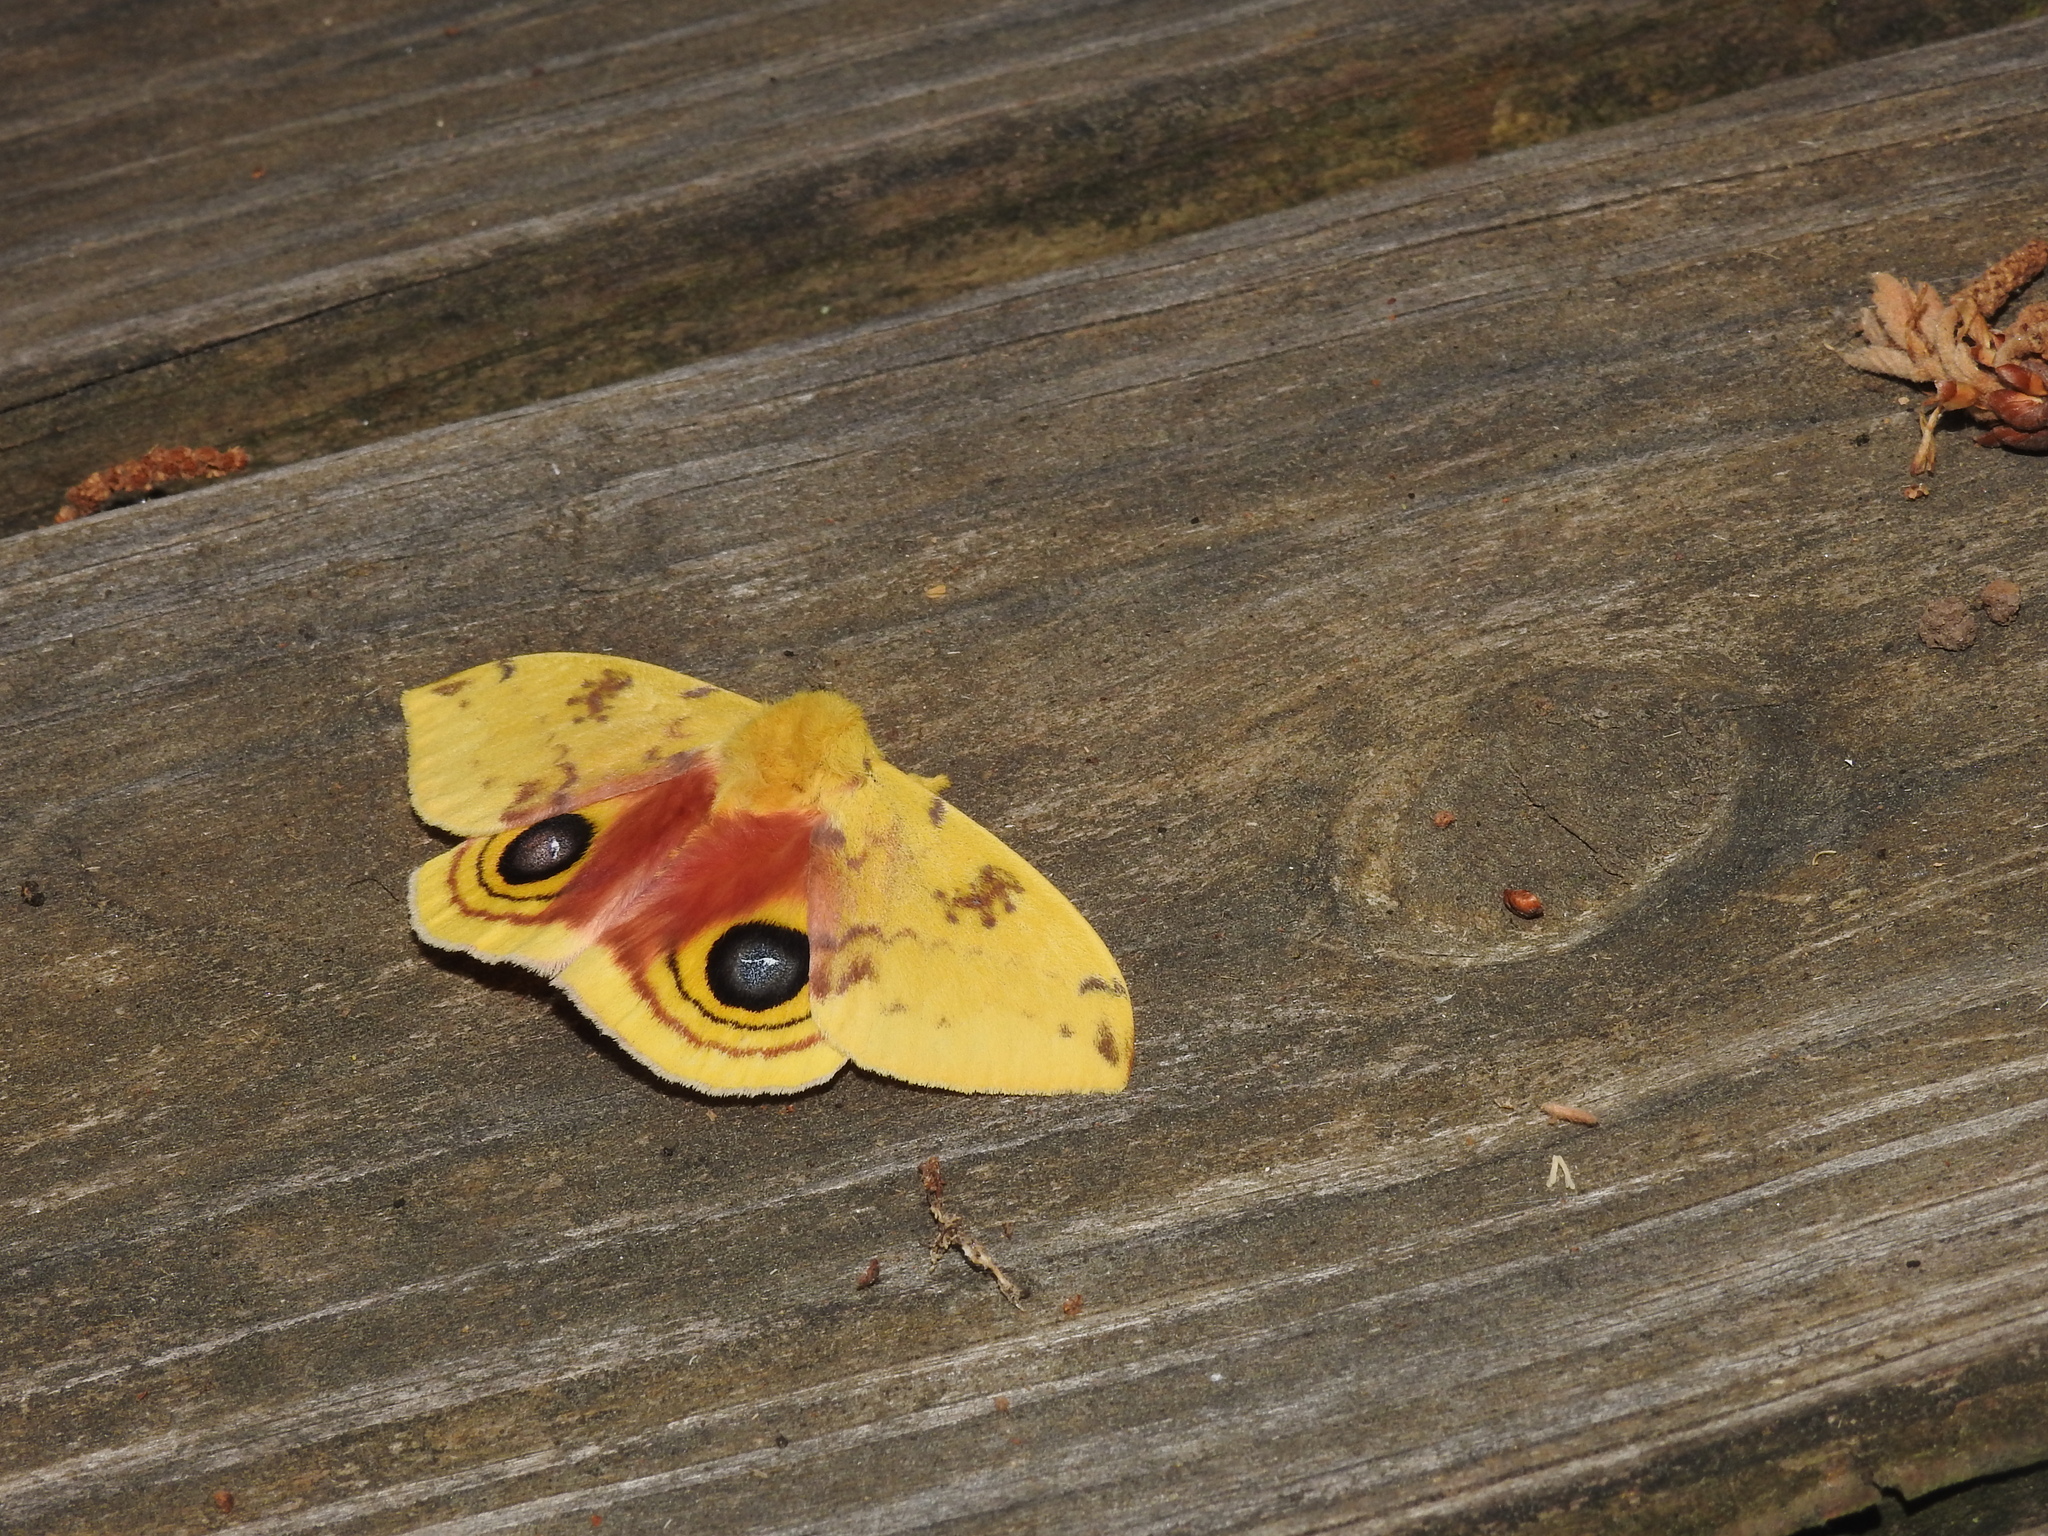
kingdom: Animalia
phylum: Arthropoda
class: Insecta
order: Lepidoptera
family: Saturniidae
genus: Automeris
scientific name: Automeris io
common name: Io moth
